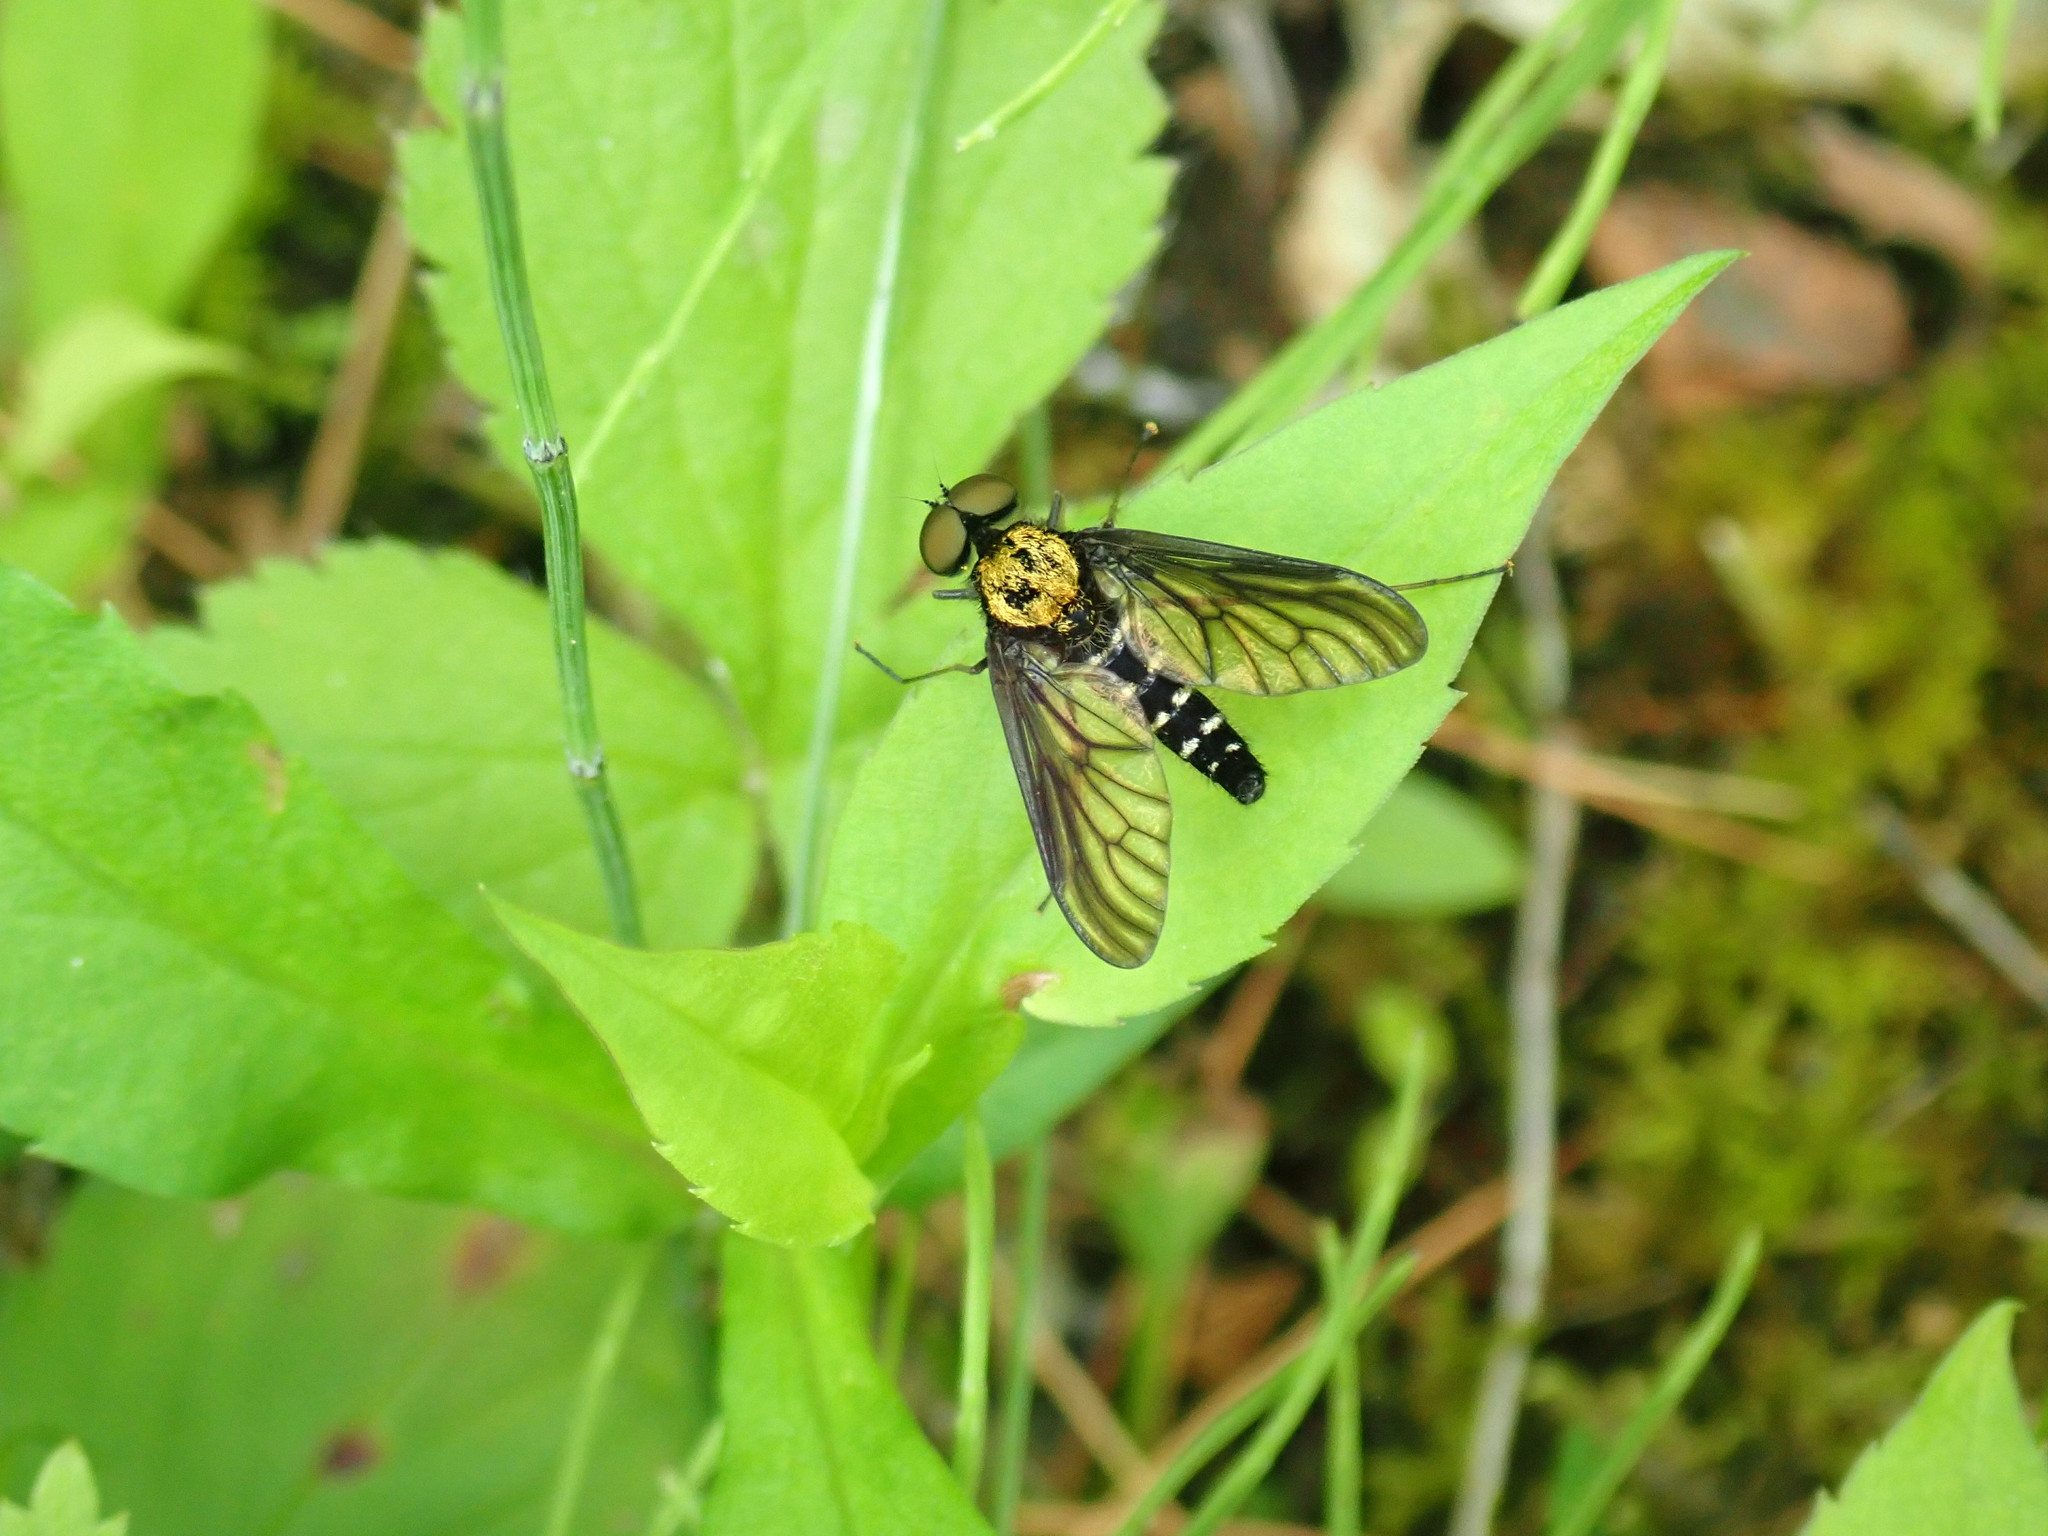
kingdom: Animalia
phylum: Arthropoda
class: Insecta
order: Diptera
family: Rhagionidae
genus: Chrysopilus
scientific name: Chrysopilus thoracicus
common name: Golden-backed snipe fly
